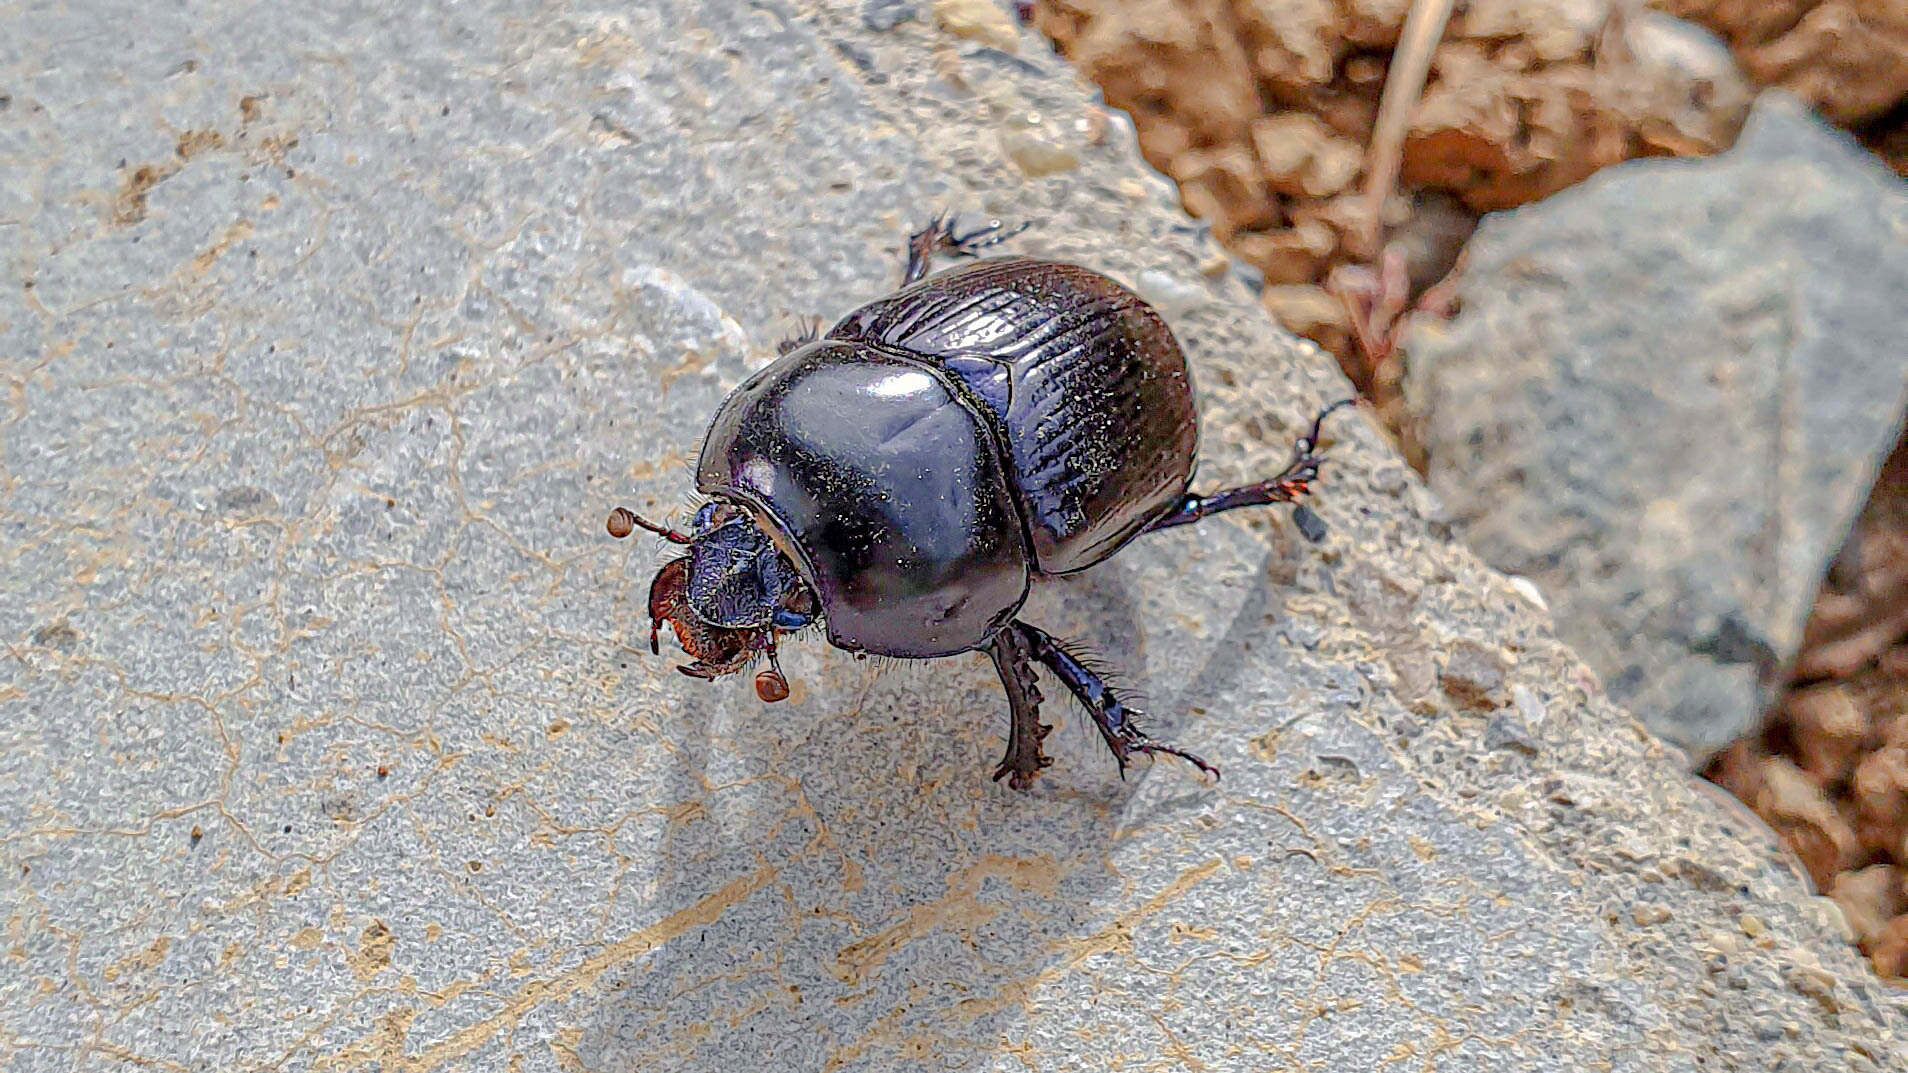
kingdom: Animalia
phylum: Arthropoda
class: Insecta
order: Coleoptera
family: Geotrupidae
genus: Anoplotrupes
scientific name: Anoplotrupes stercorosus
